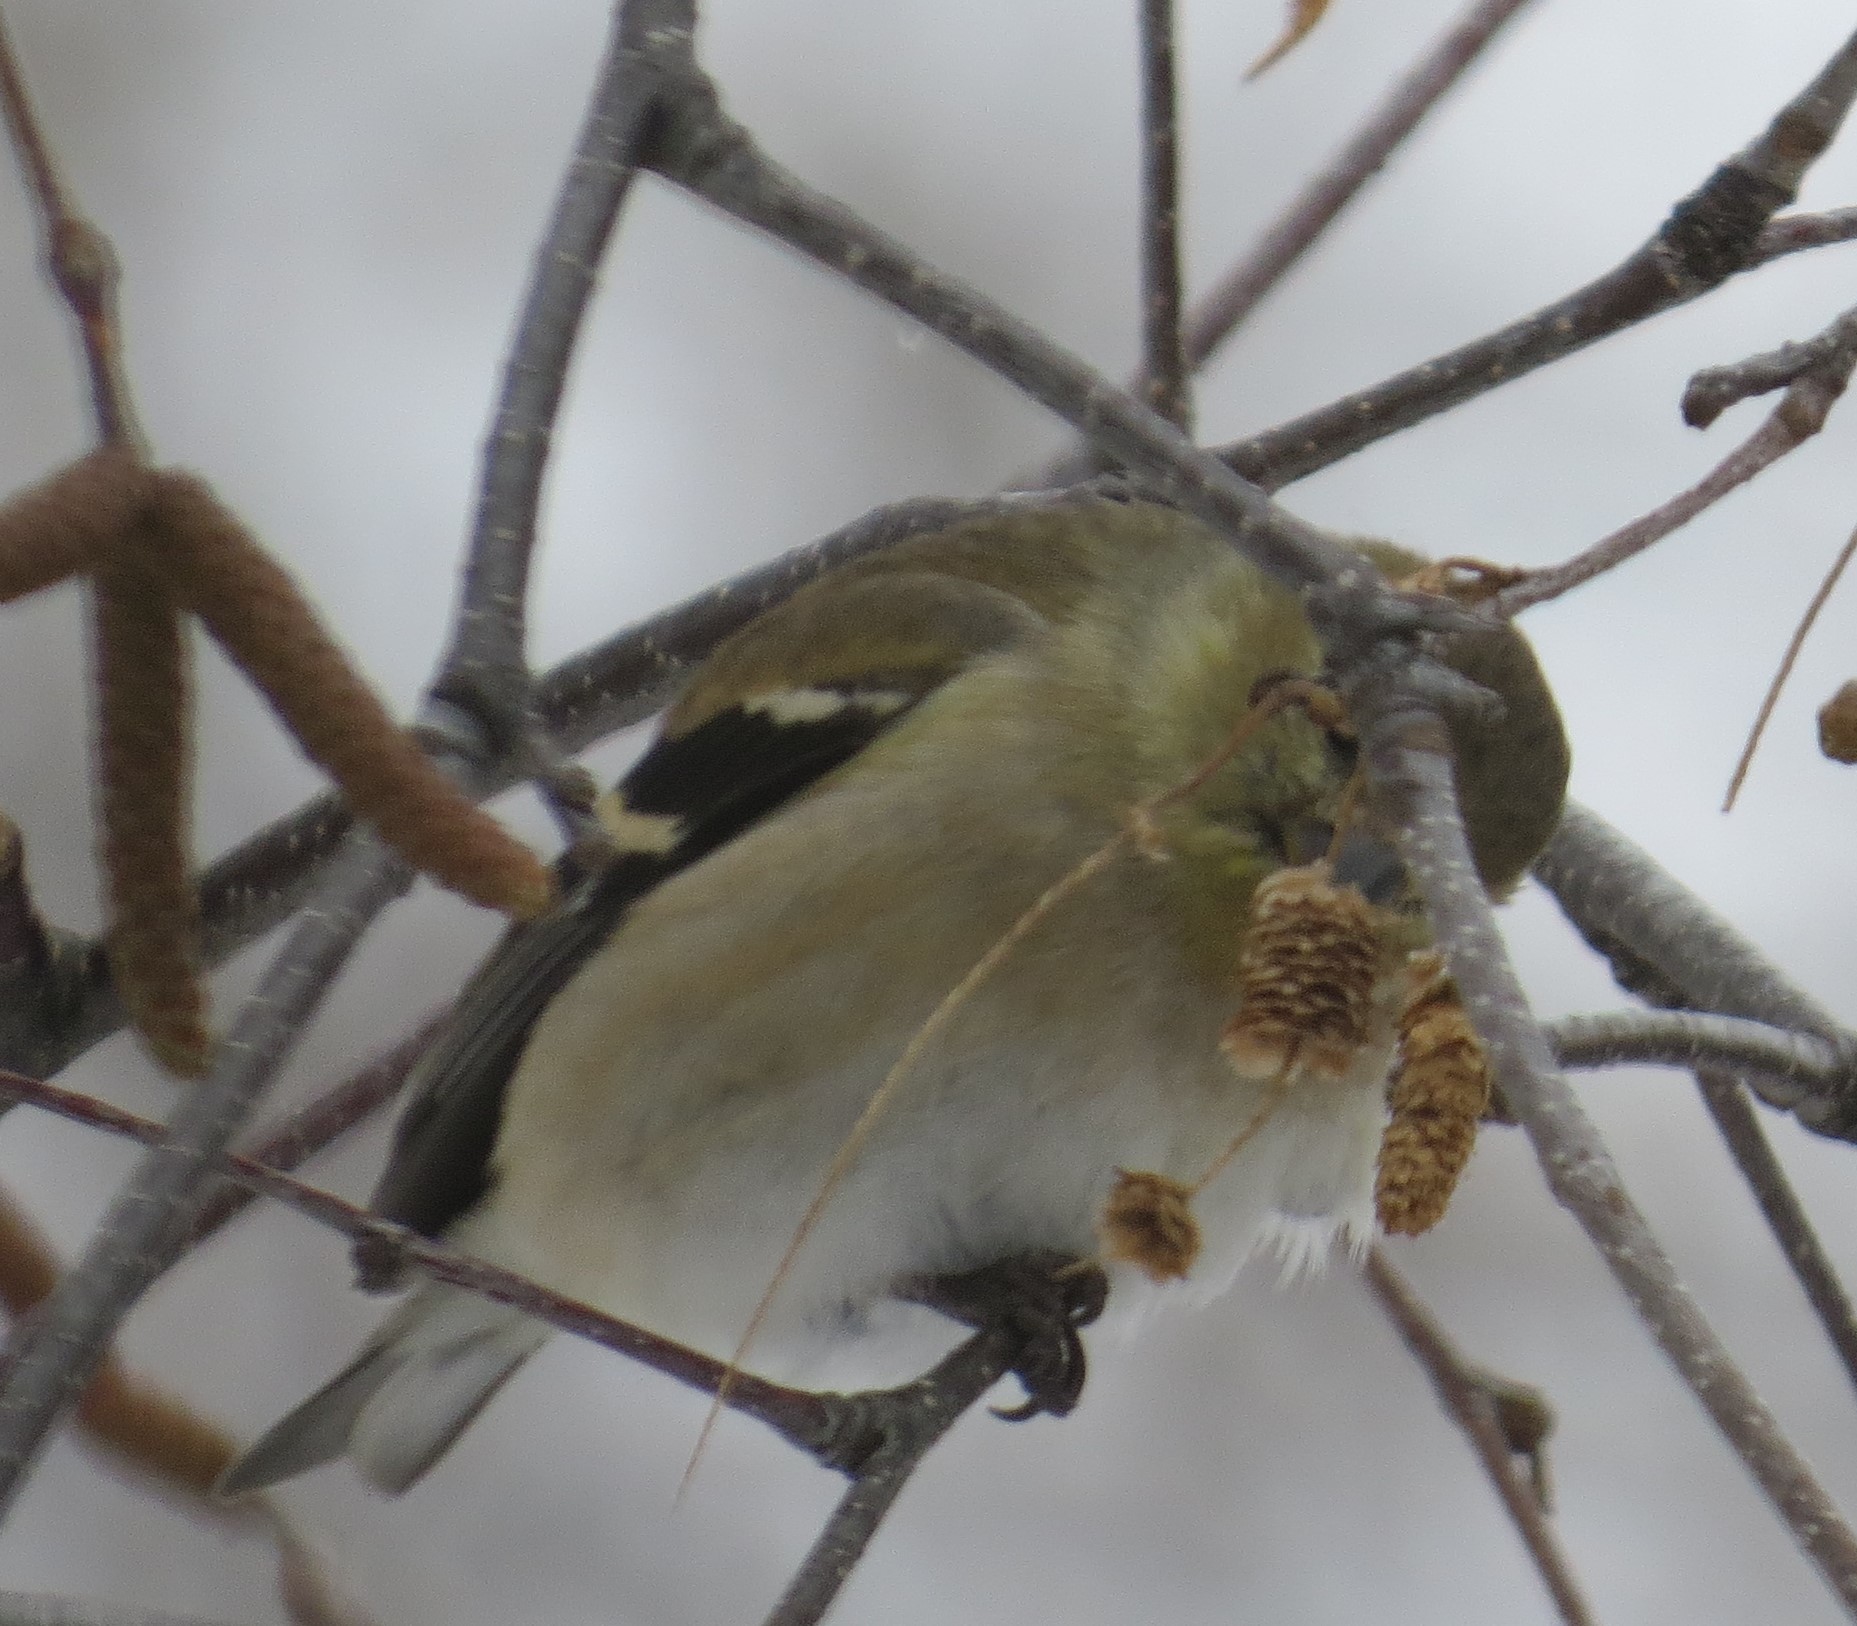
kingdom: Animalia
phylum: Chordata
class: Aves
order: Passeriformes
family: Fringillidae
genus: Spinus
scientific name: Spinus tristis
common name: American goldfinch
